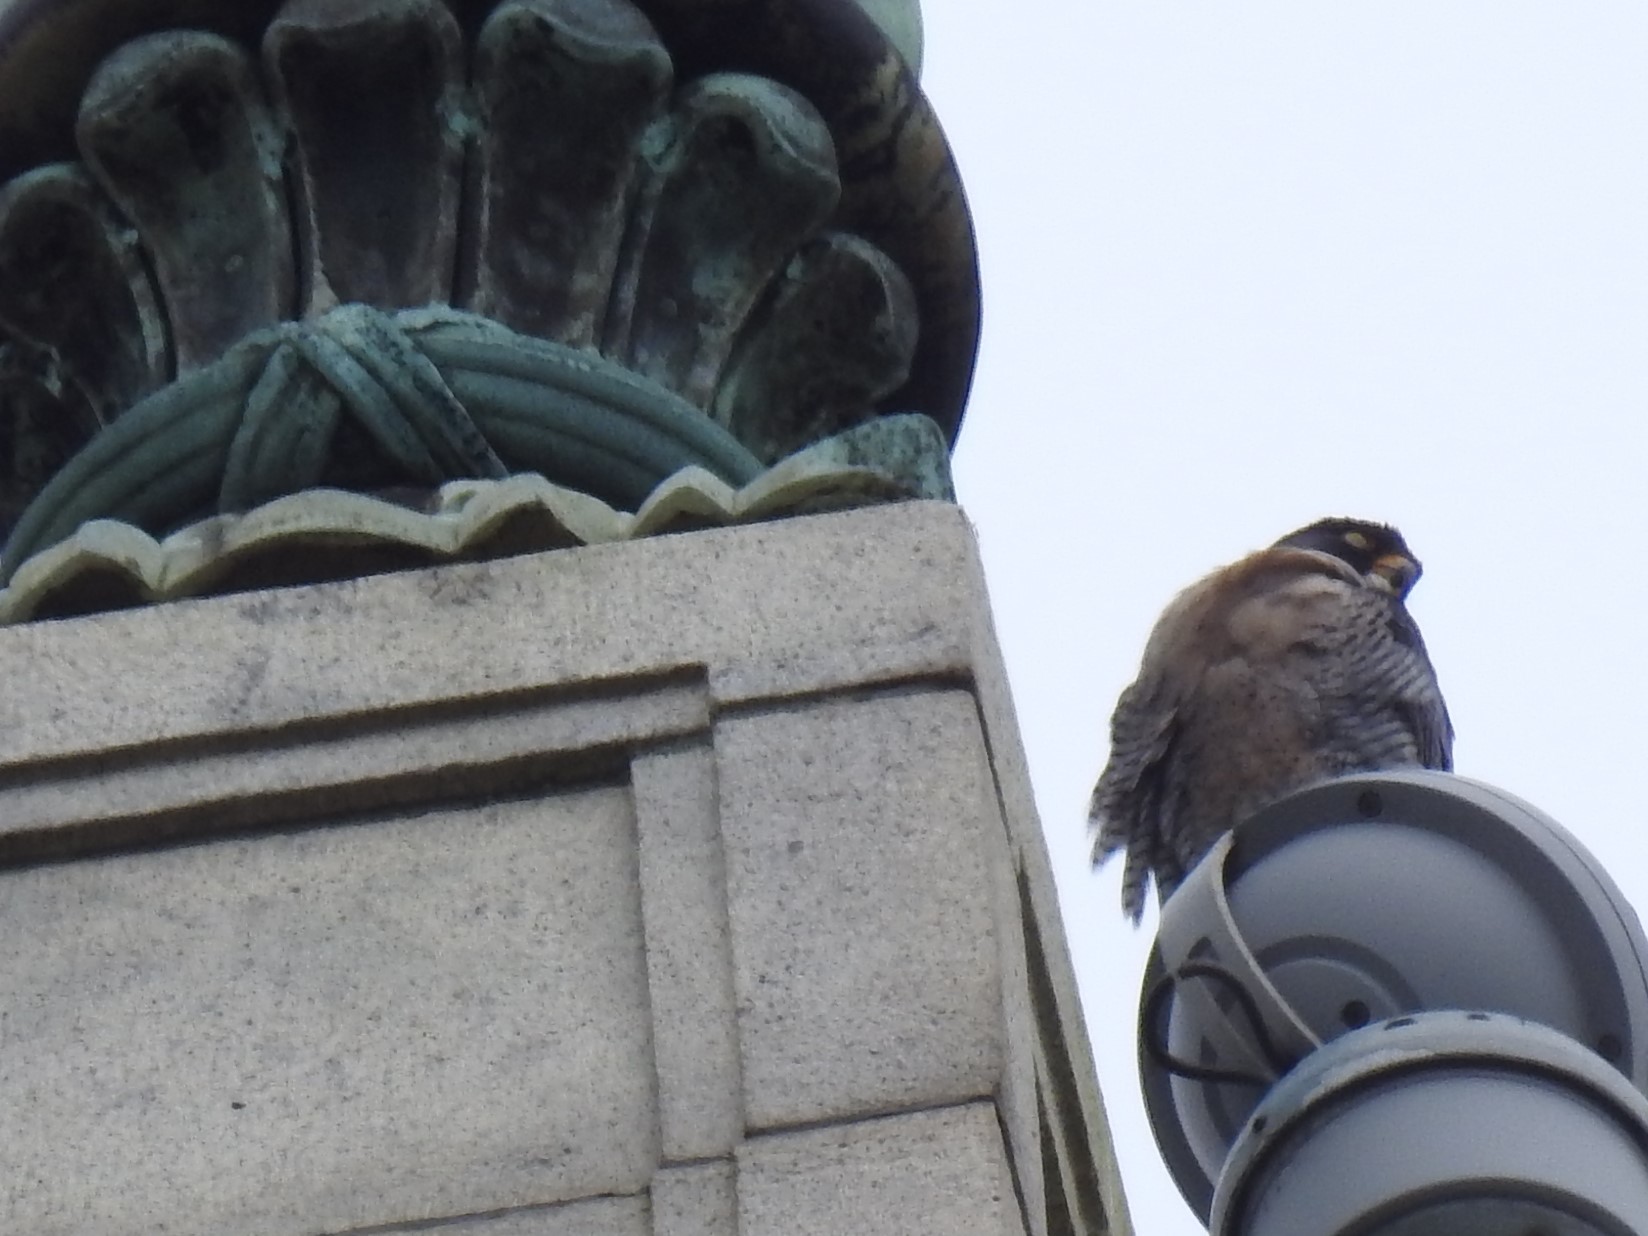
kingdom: Animalia
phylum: Chordata
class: Aves
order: Falconiformes
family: Falconidae
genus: Falco
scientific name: Falco peregrinus
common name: Peregrine falcon
